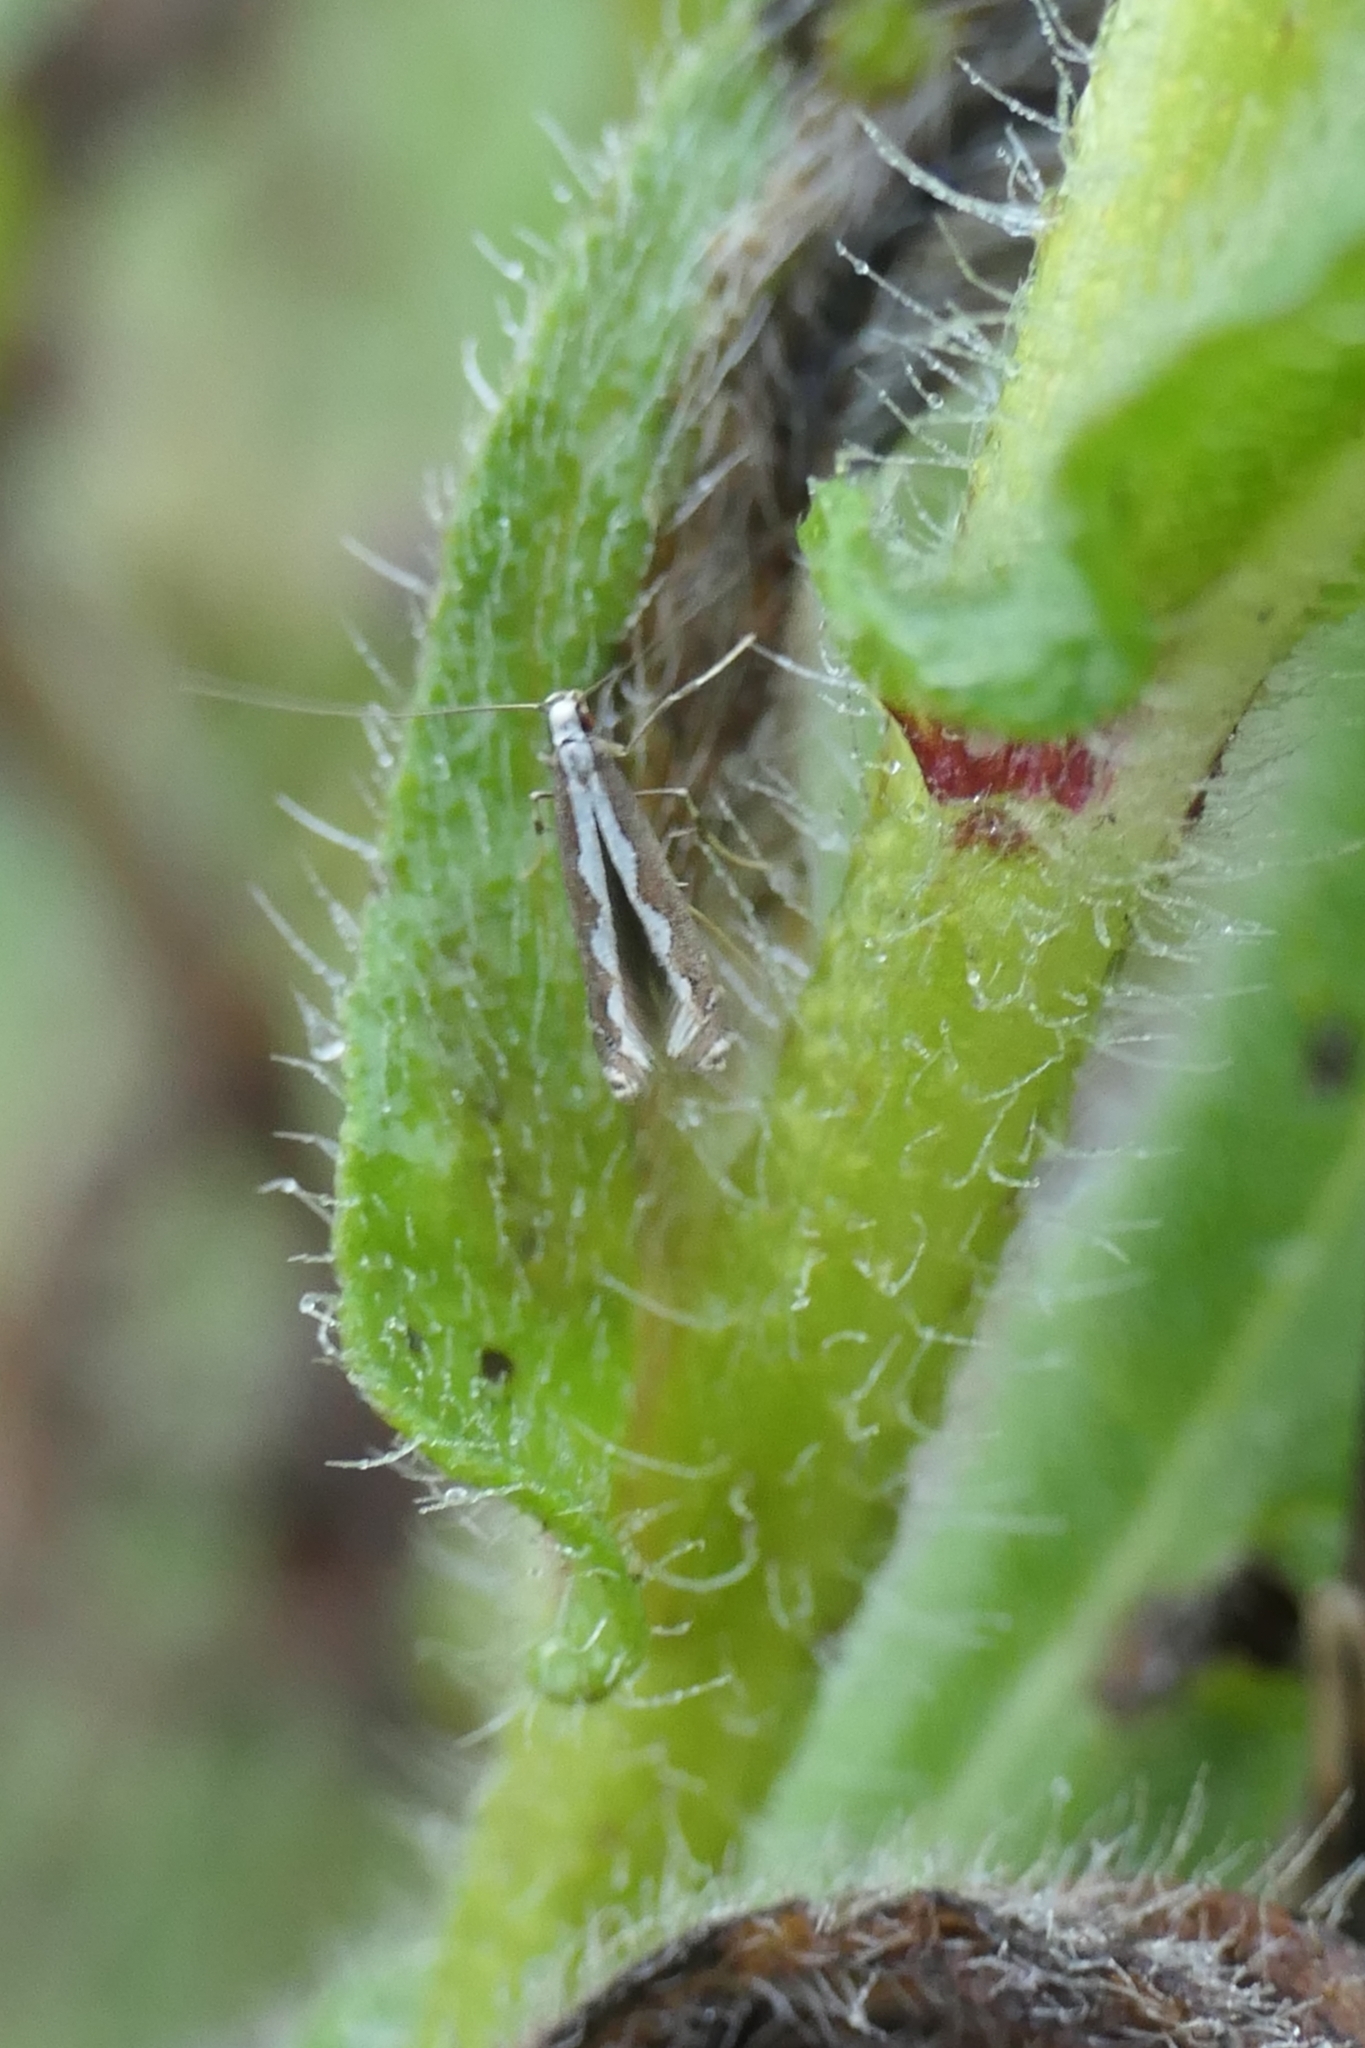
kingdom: Animalia
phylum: Arthropoda
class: Insecta
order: Lepidoptera
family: Gracillariidae
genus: Dialectica
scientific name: Dialectica scalariella
